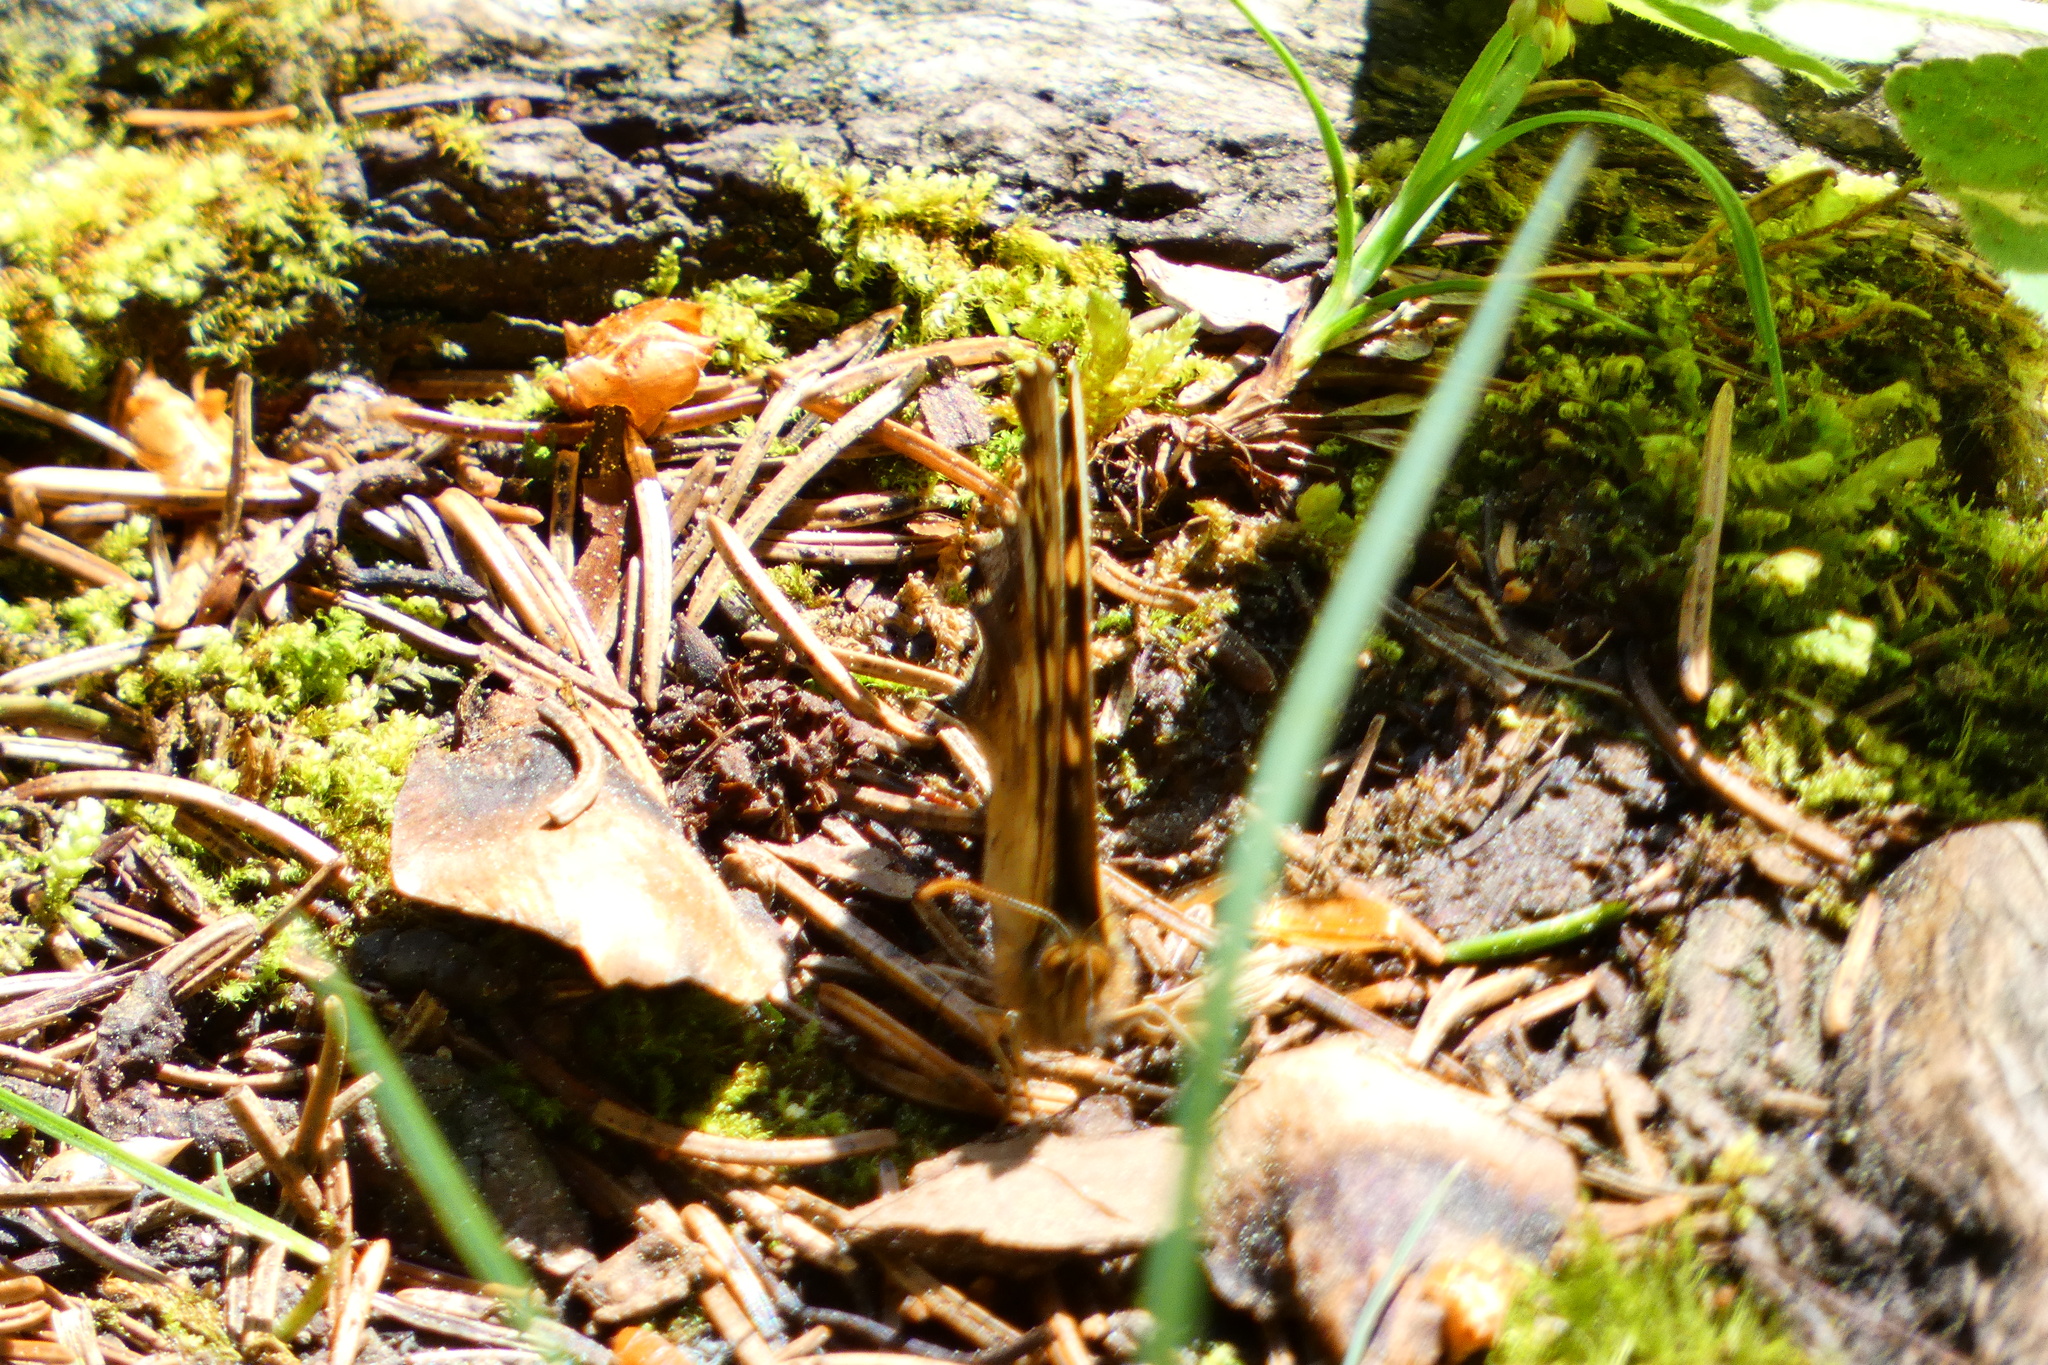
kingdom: Animalia
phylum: Arthropoda
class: Insecta
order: Lepidoptera
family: Nymphalidae
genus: Pararge
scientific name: Pararge aegeria
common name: Speckled wood
